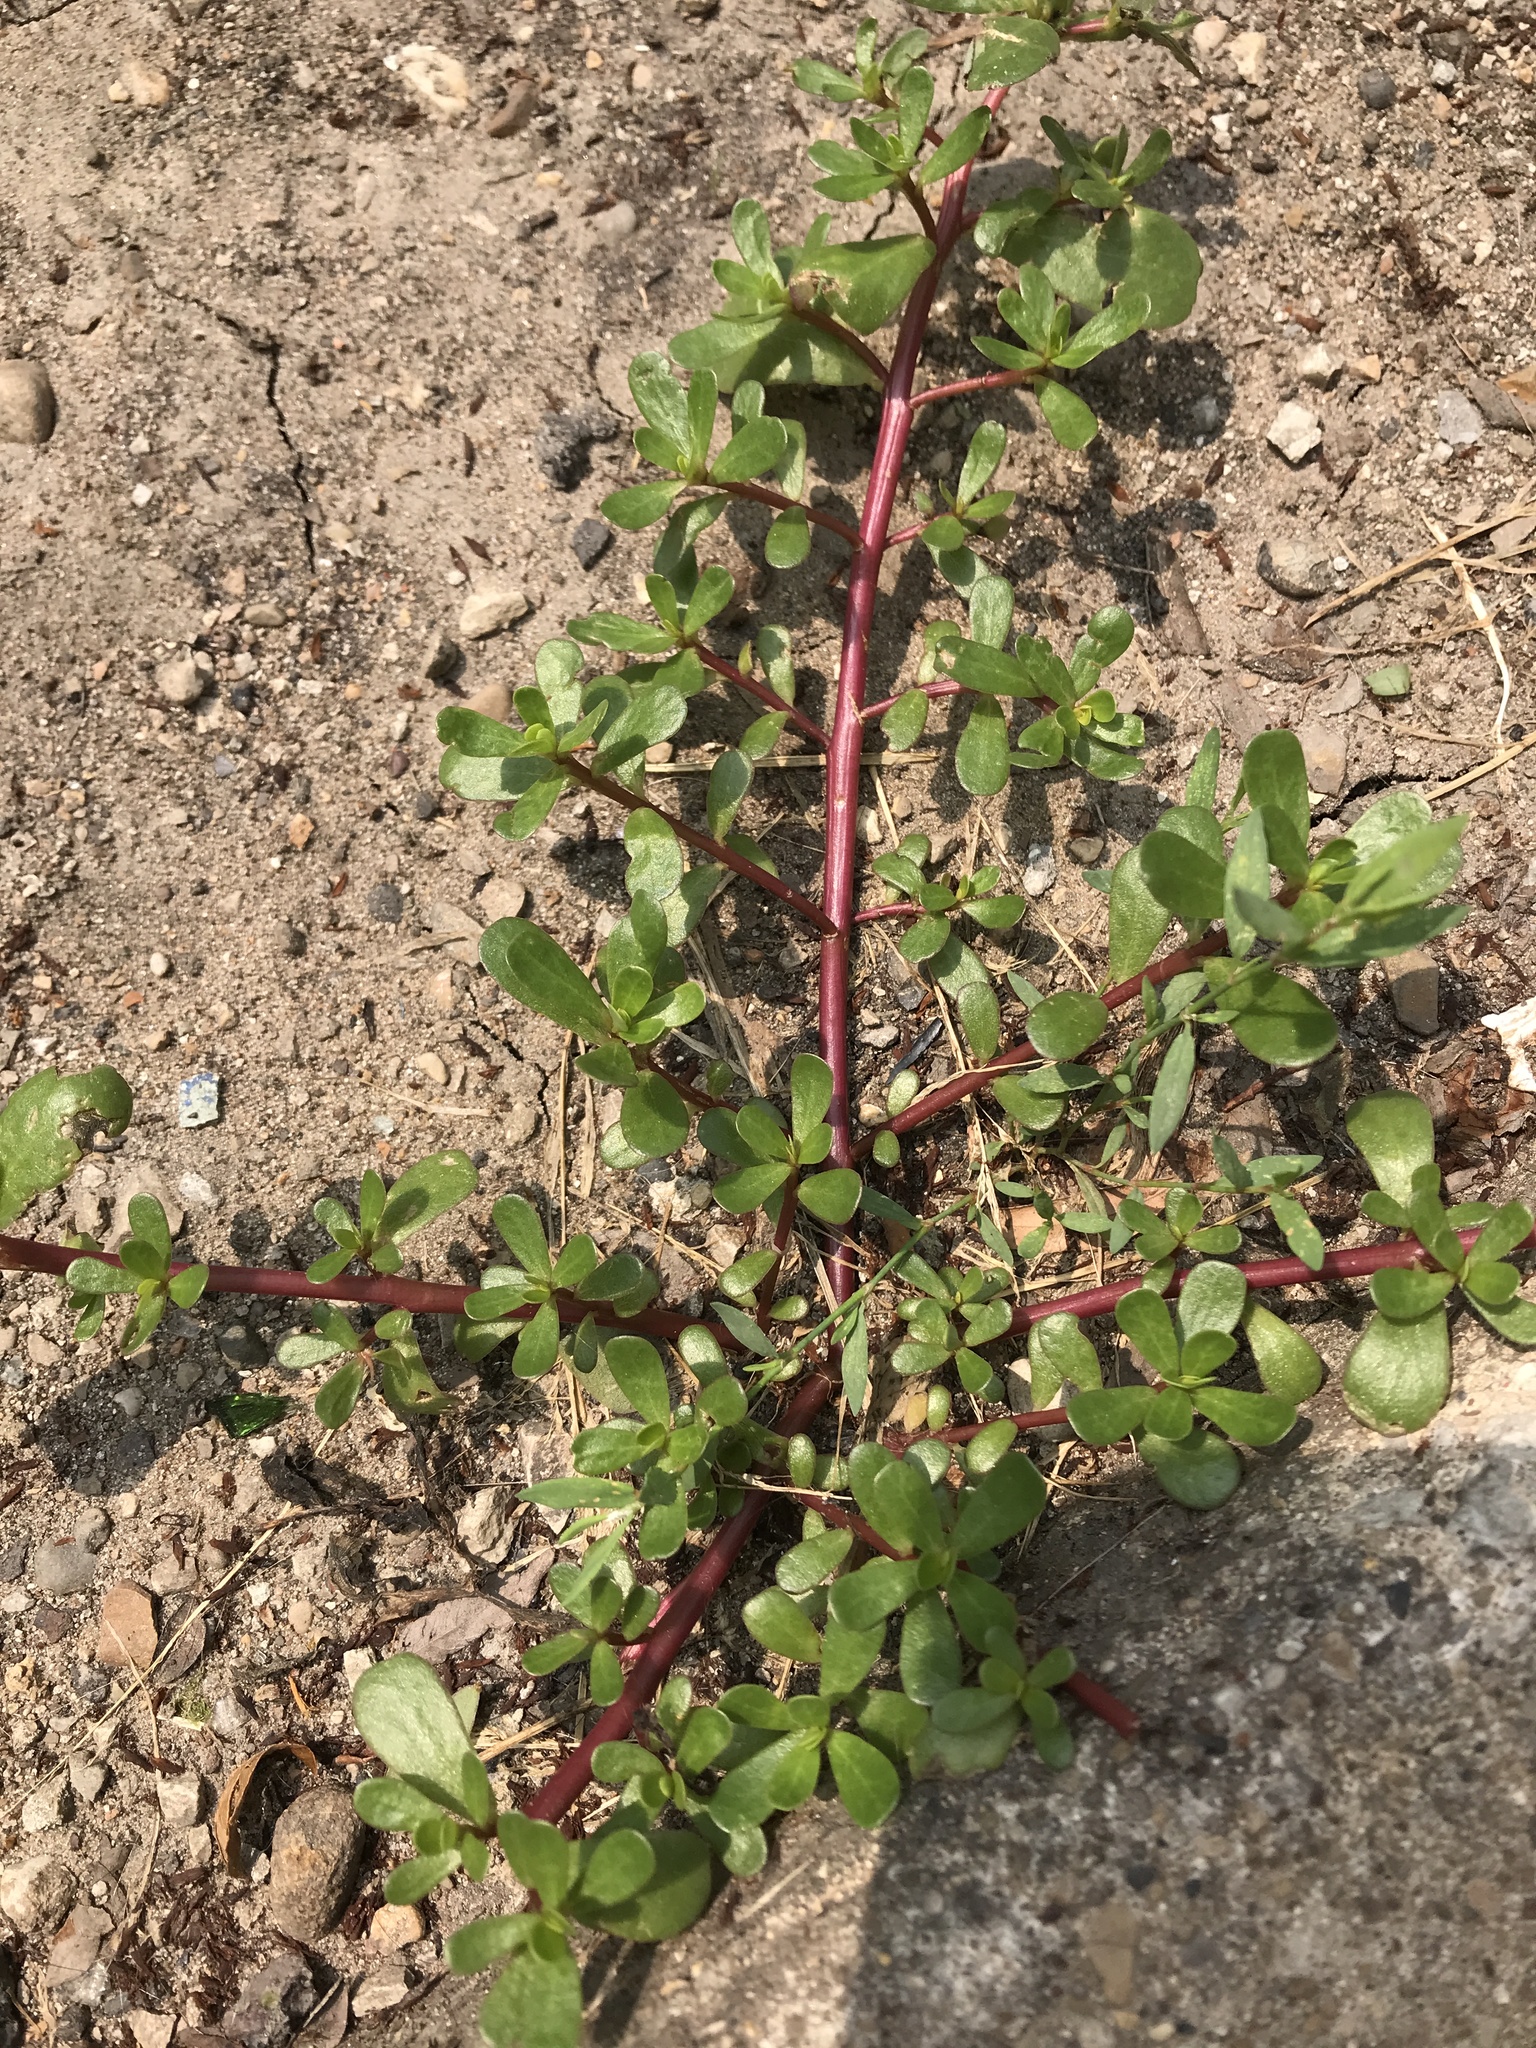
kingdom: Plantae
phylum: Tracheophyta
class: Magnoliopsida
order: Caryophyllales
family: Portulacaceae
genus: Portulaca
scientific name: Portulaca oleracea
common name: Common purslane
